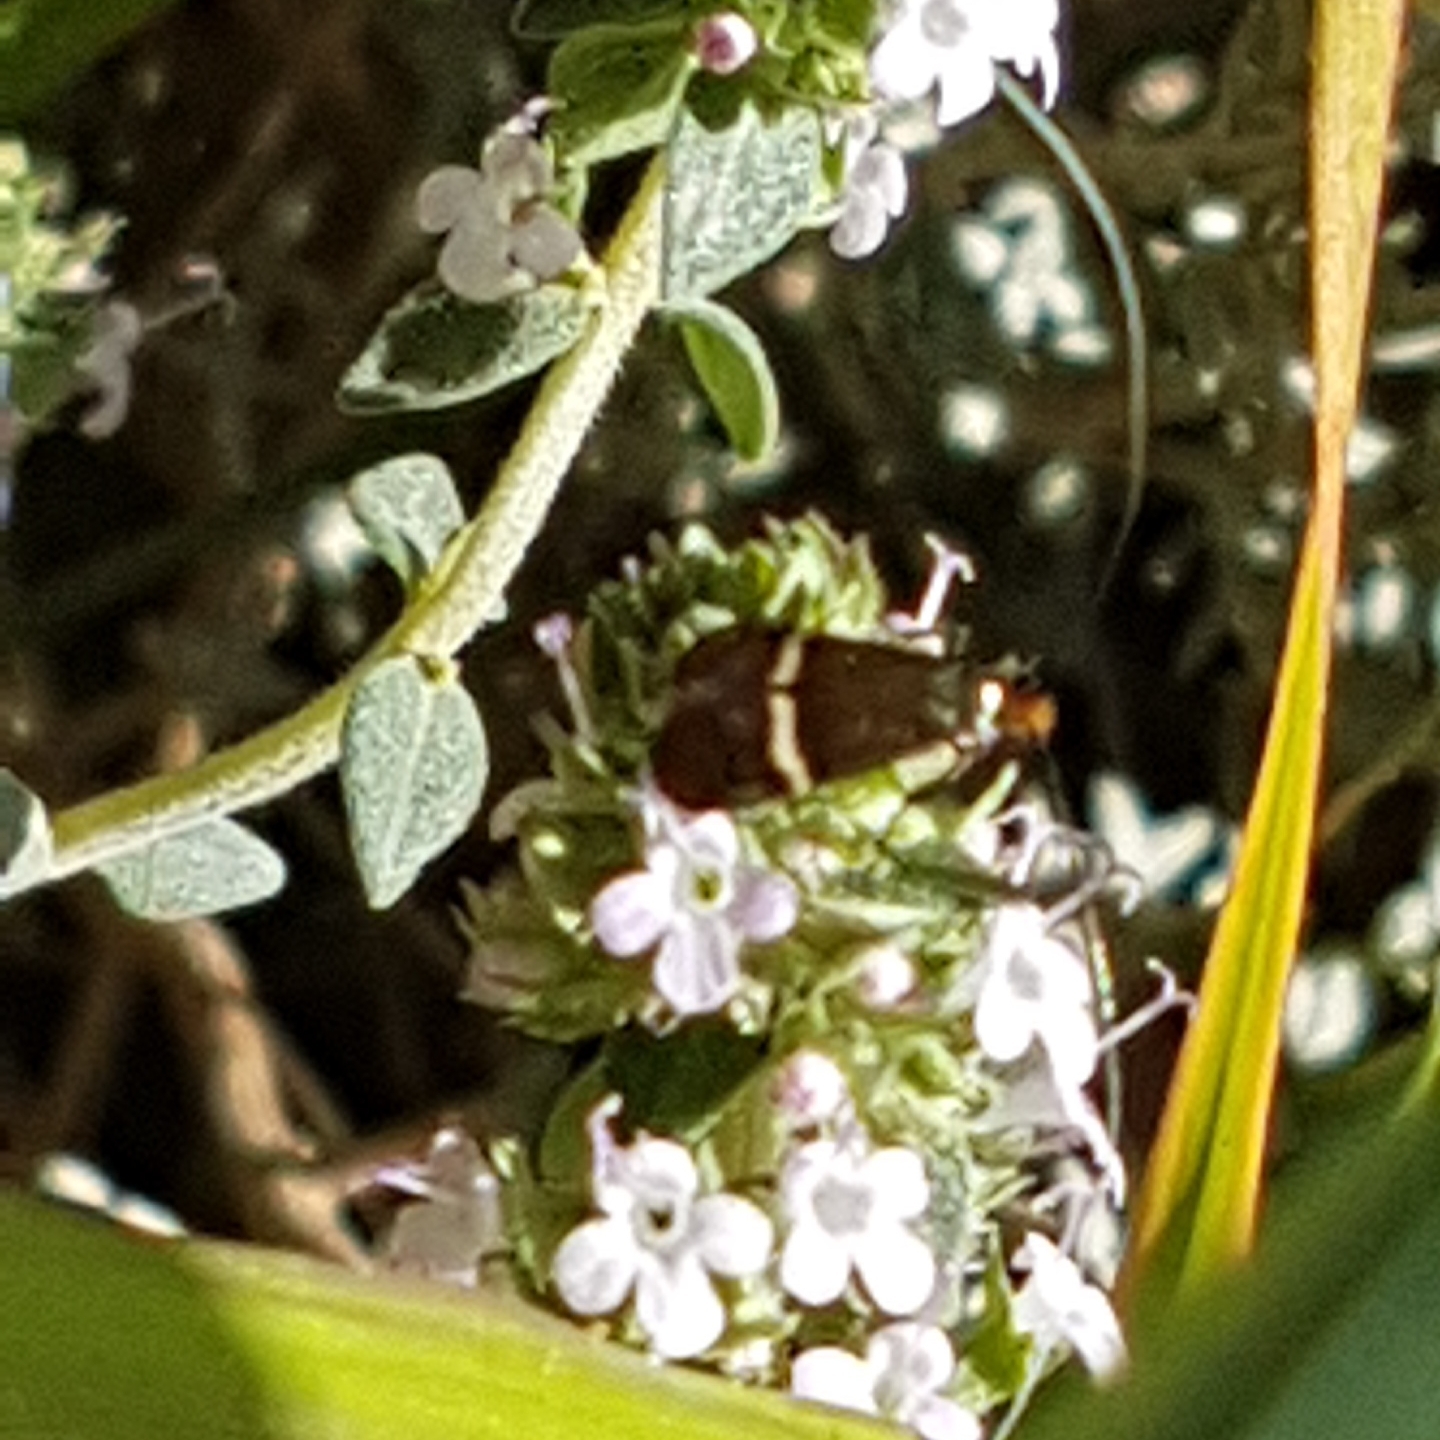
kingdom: Animalia
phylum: Arthropoda
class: Insecta
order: Lepidoptera
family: Adelidae
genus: Adela
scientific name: Adela australis
